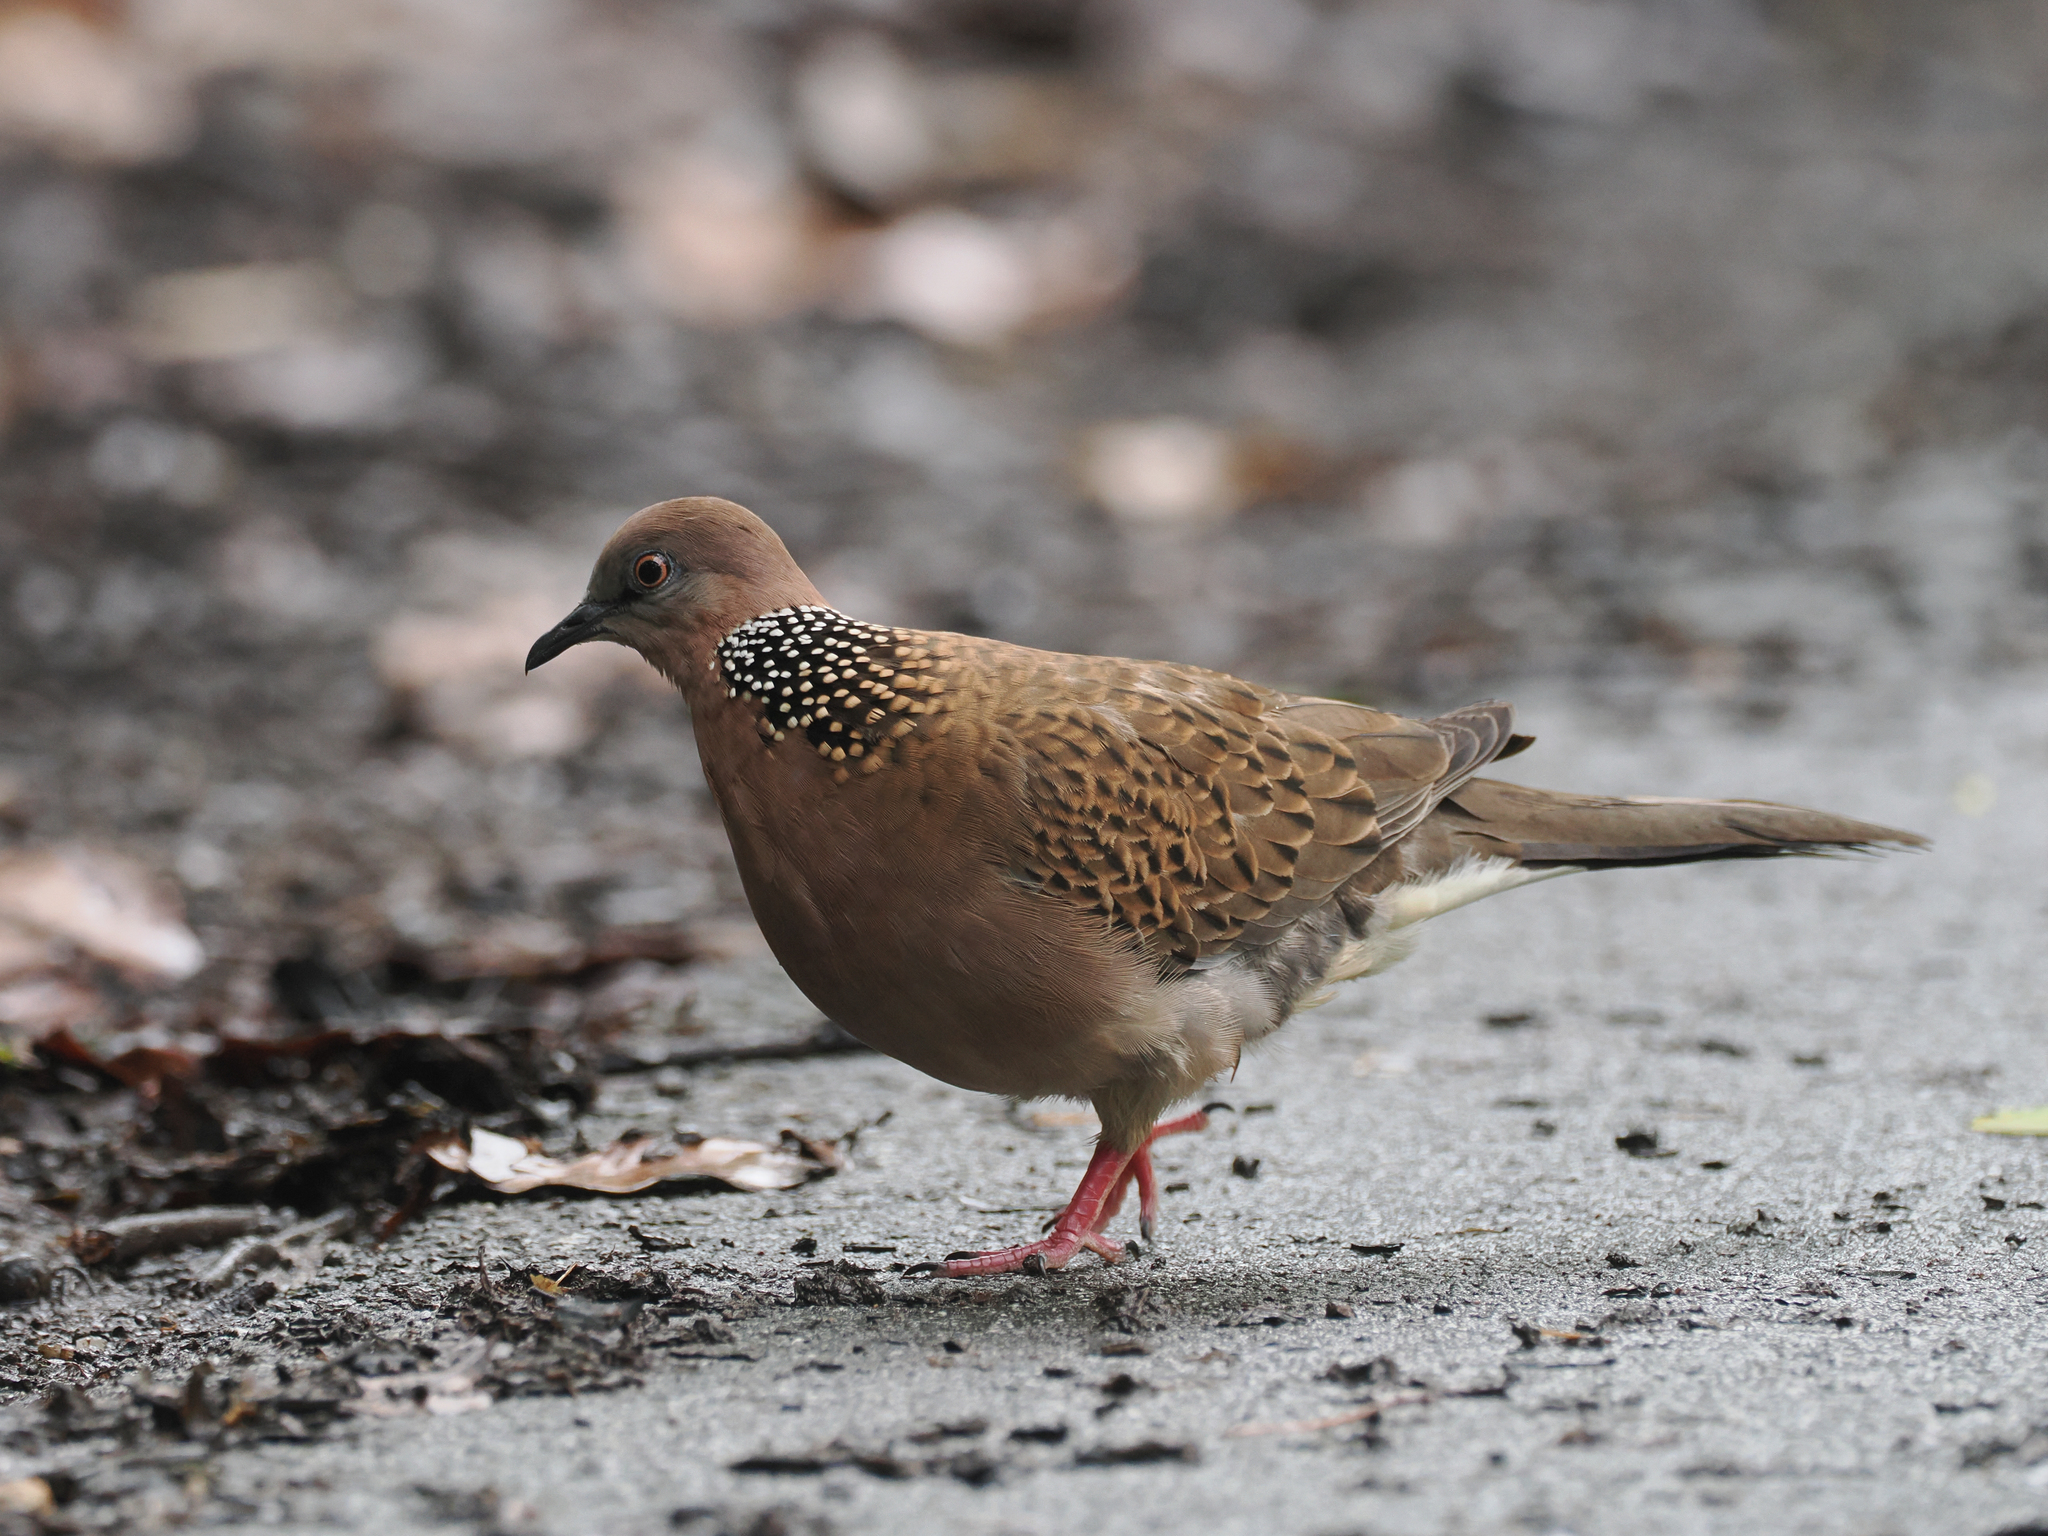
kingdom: Animalia
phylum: Chordata
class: Aves
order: Columbiformes
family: Columbidae
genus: Spilopelia
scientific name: Spilopelia chinensis
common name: Spotted dove
